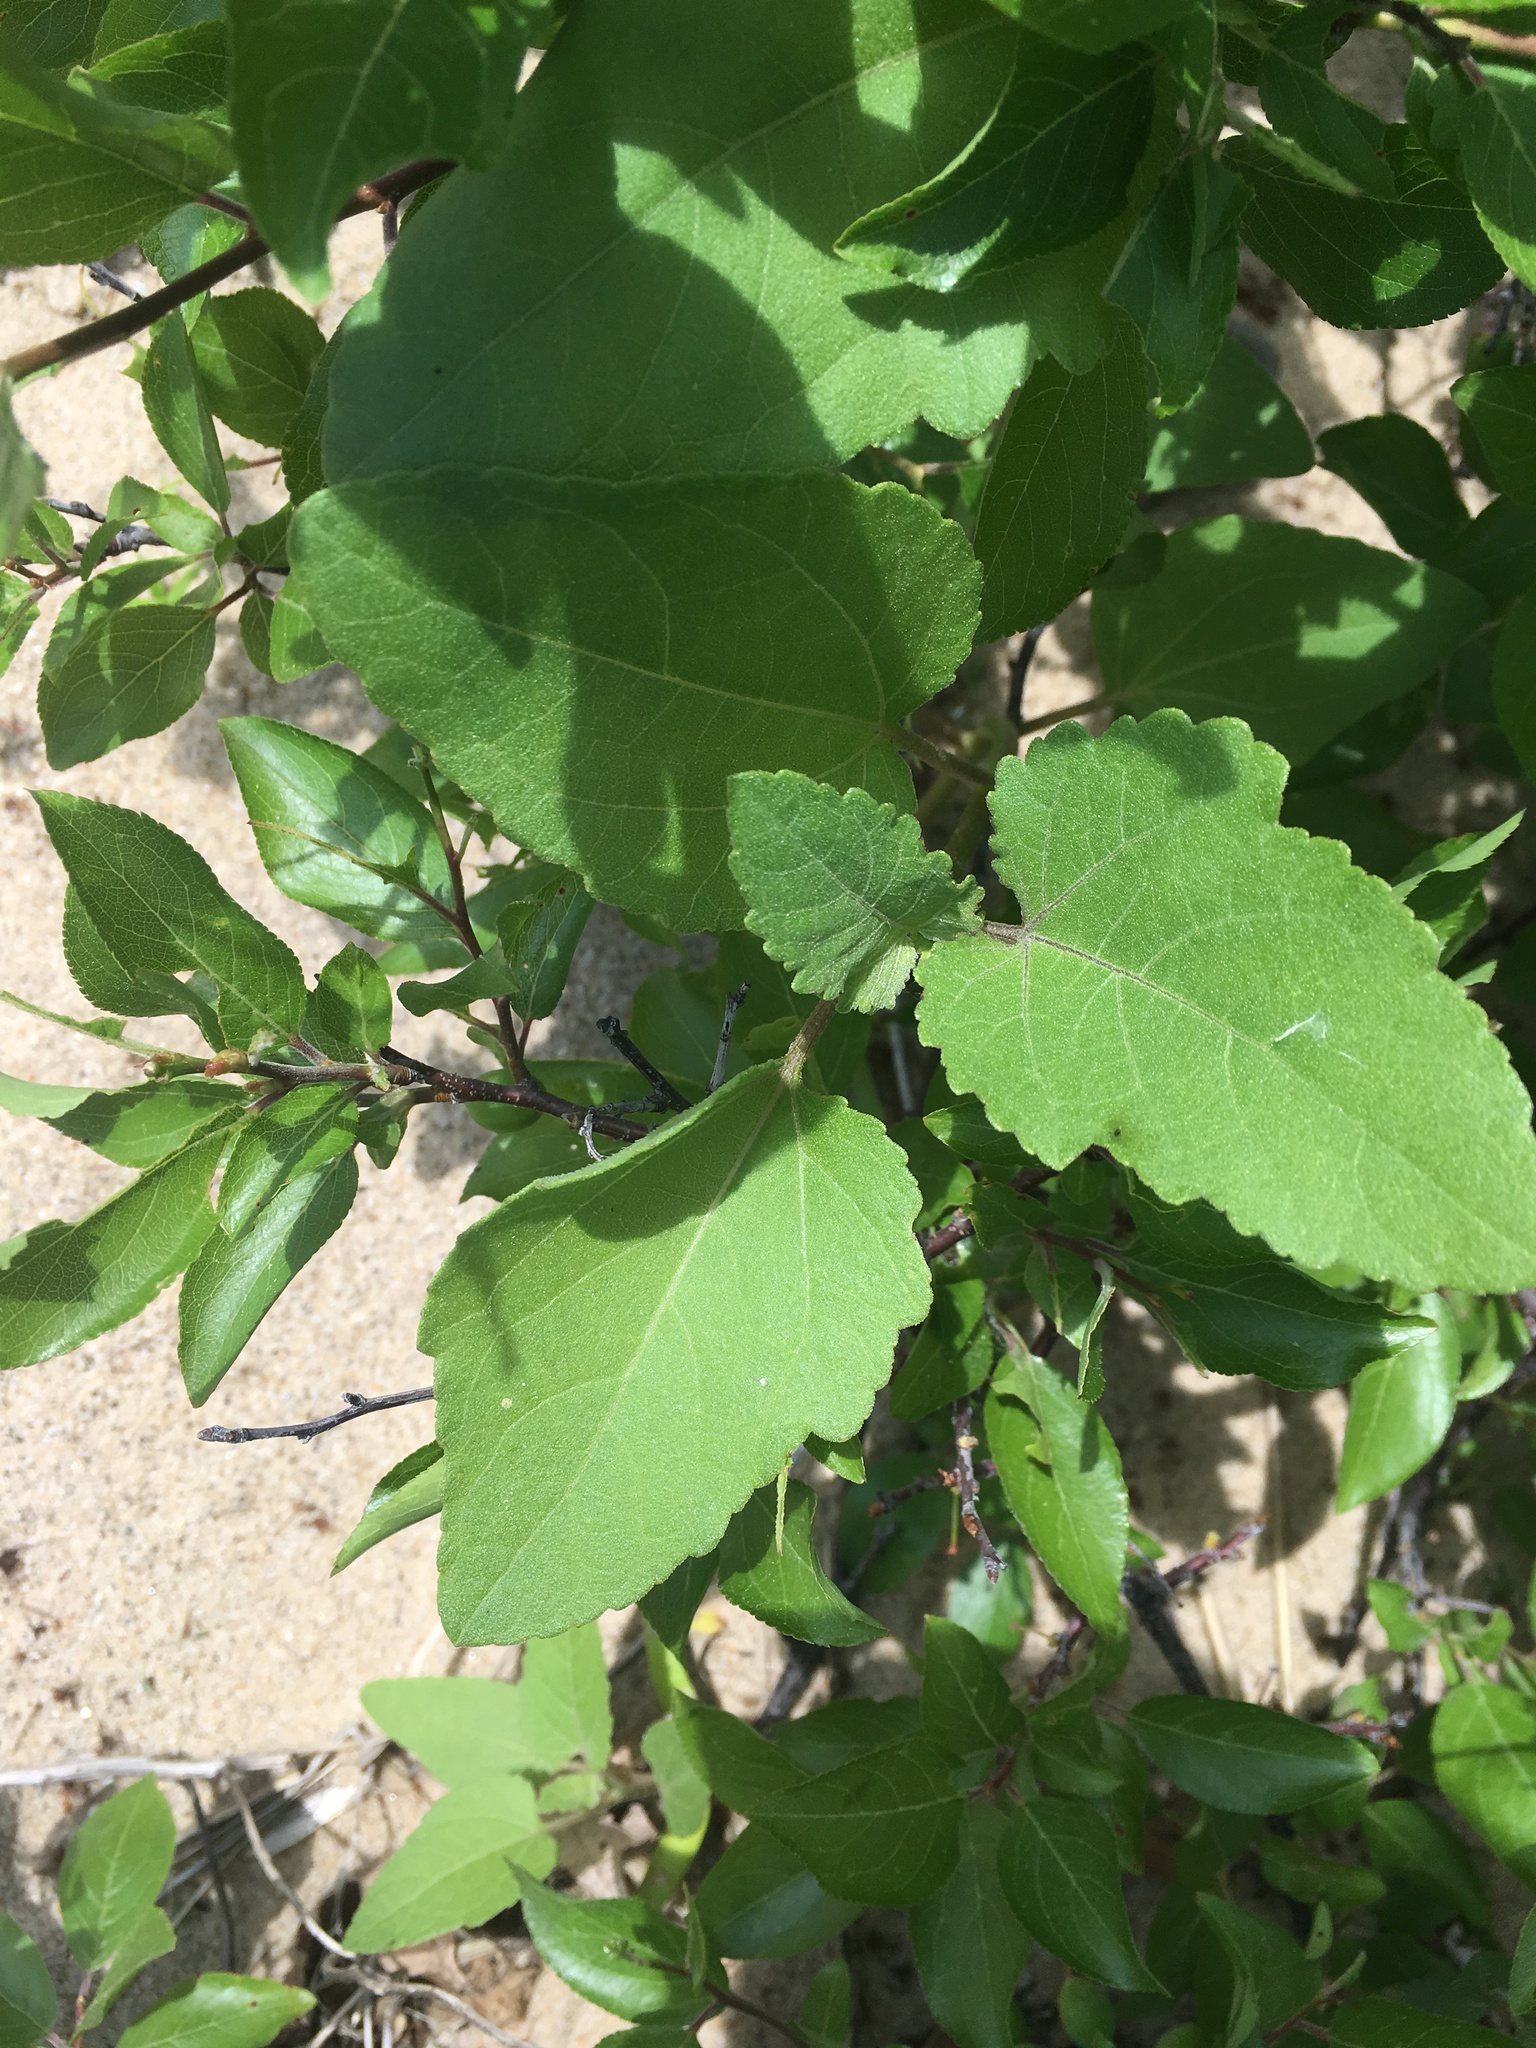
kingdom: Plantae
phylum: Tracheophyta
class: Magnoliopsida
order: Asterales
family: Asteraceae
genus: Xanthium
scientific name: Xanthium strumarium
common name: Rough cocklebur
